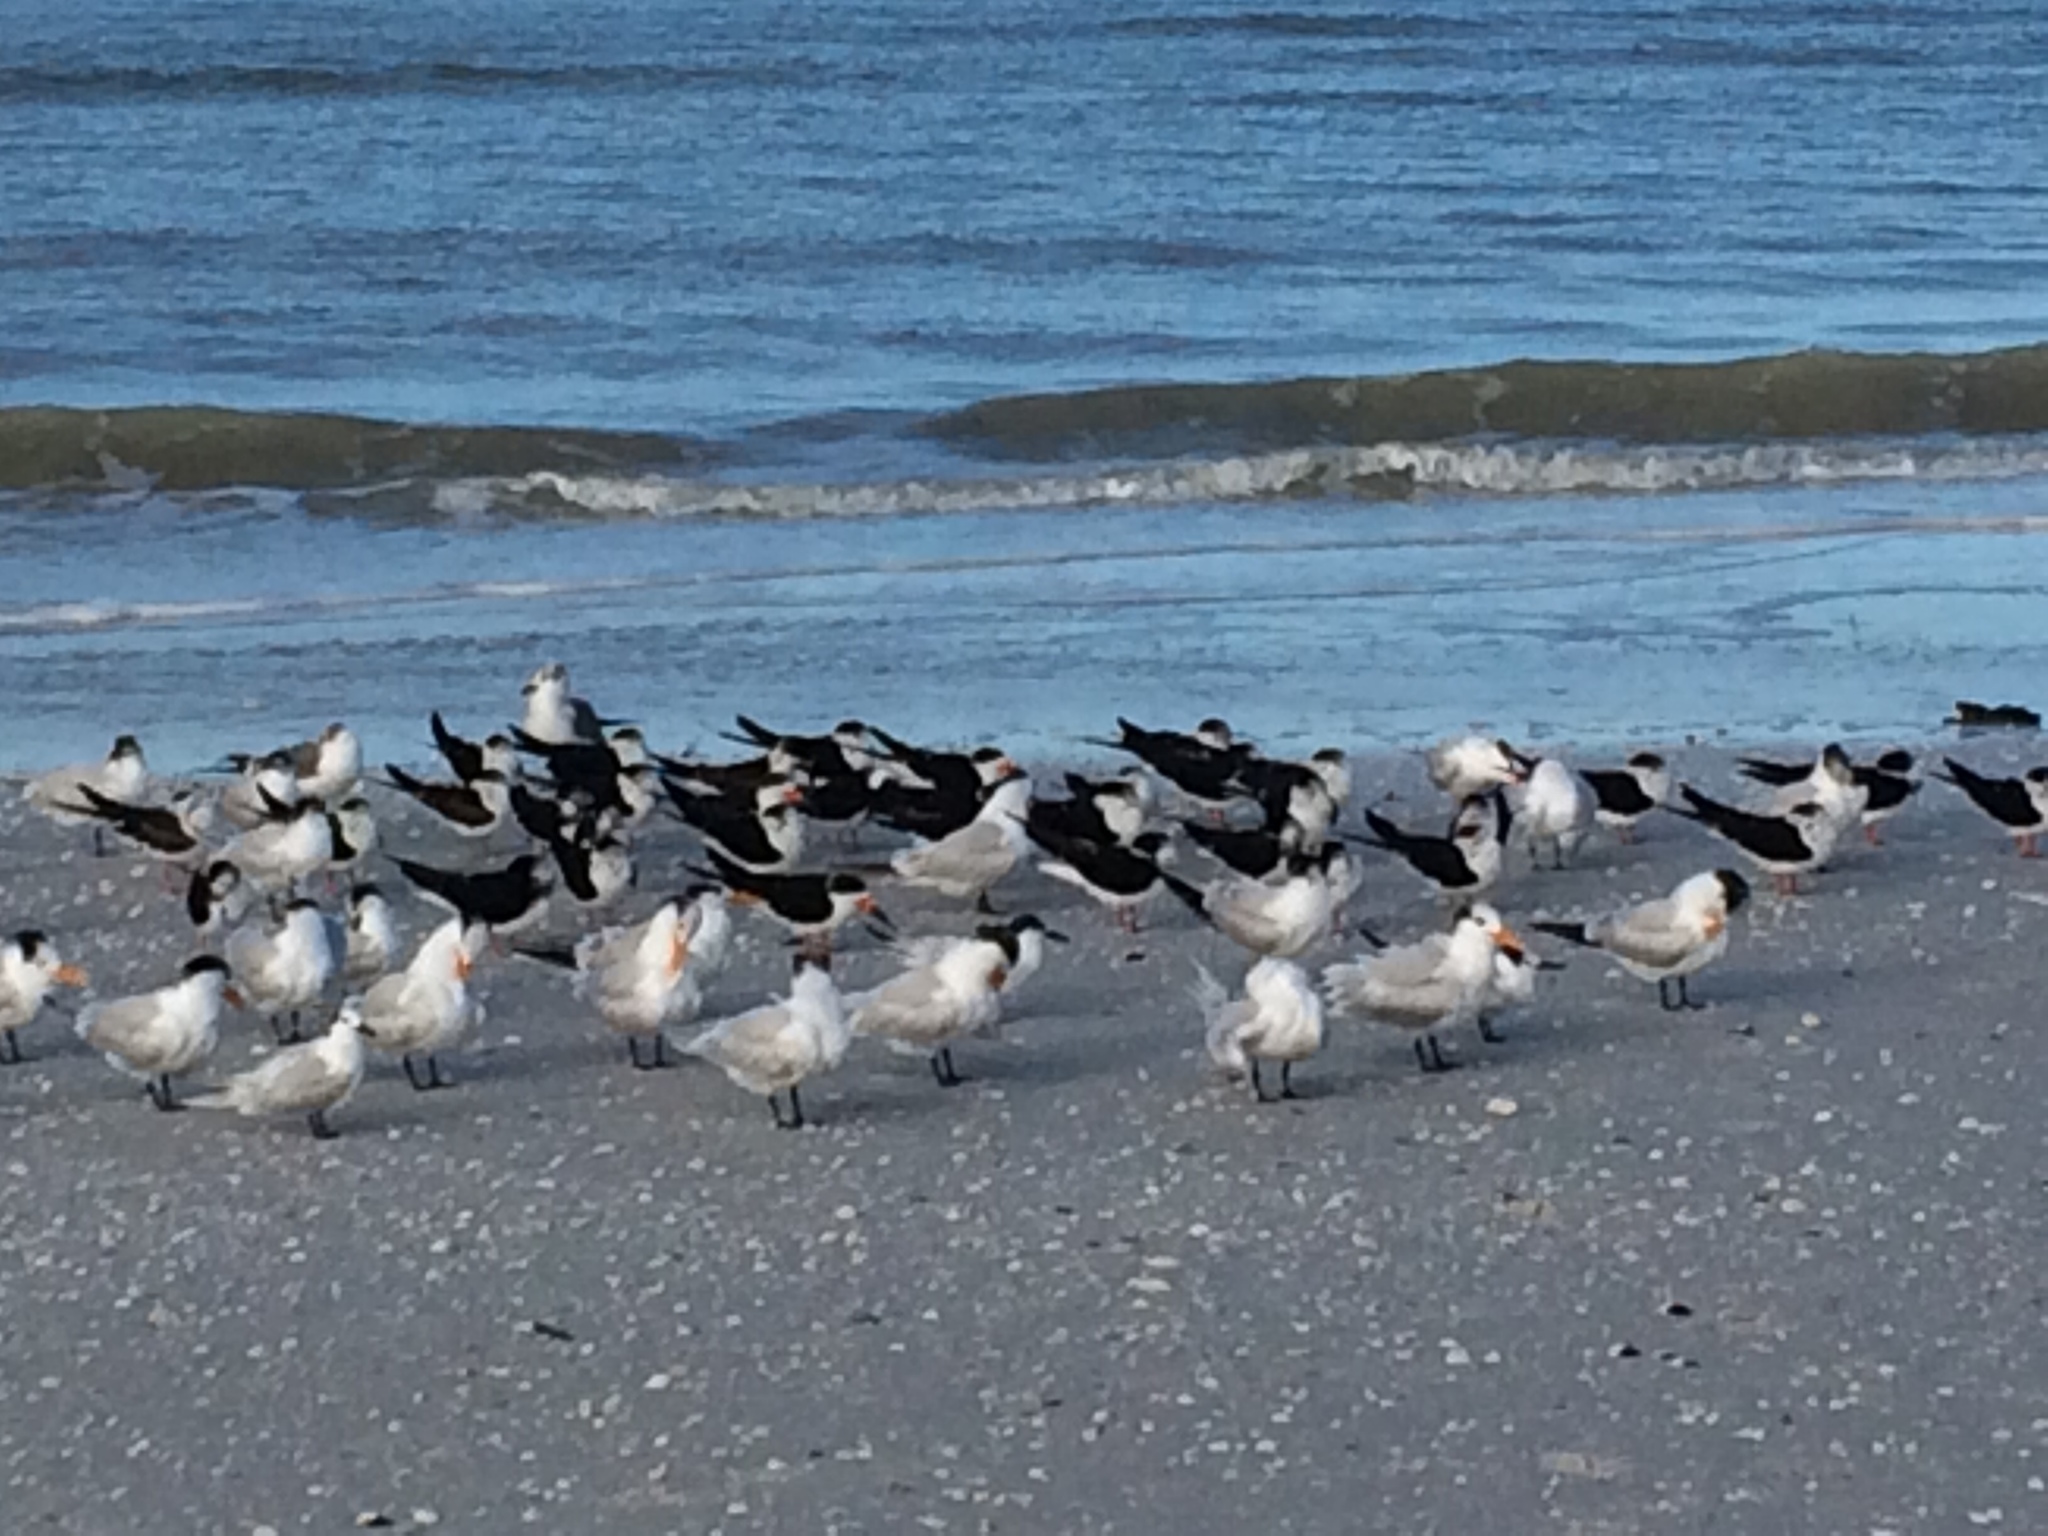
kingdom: Animalia
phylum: Chordata
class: Aves
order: Charadriiformes
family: Laridae
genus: Rynchops
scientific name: Rynchops niger
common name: Black skimmer
